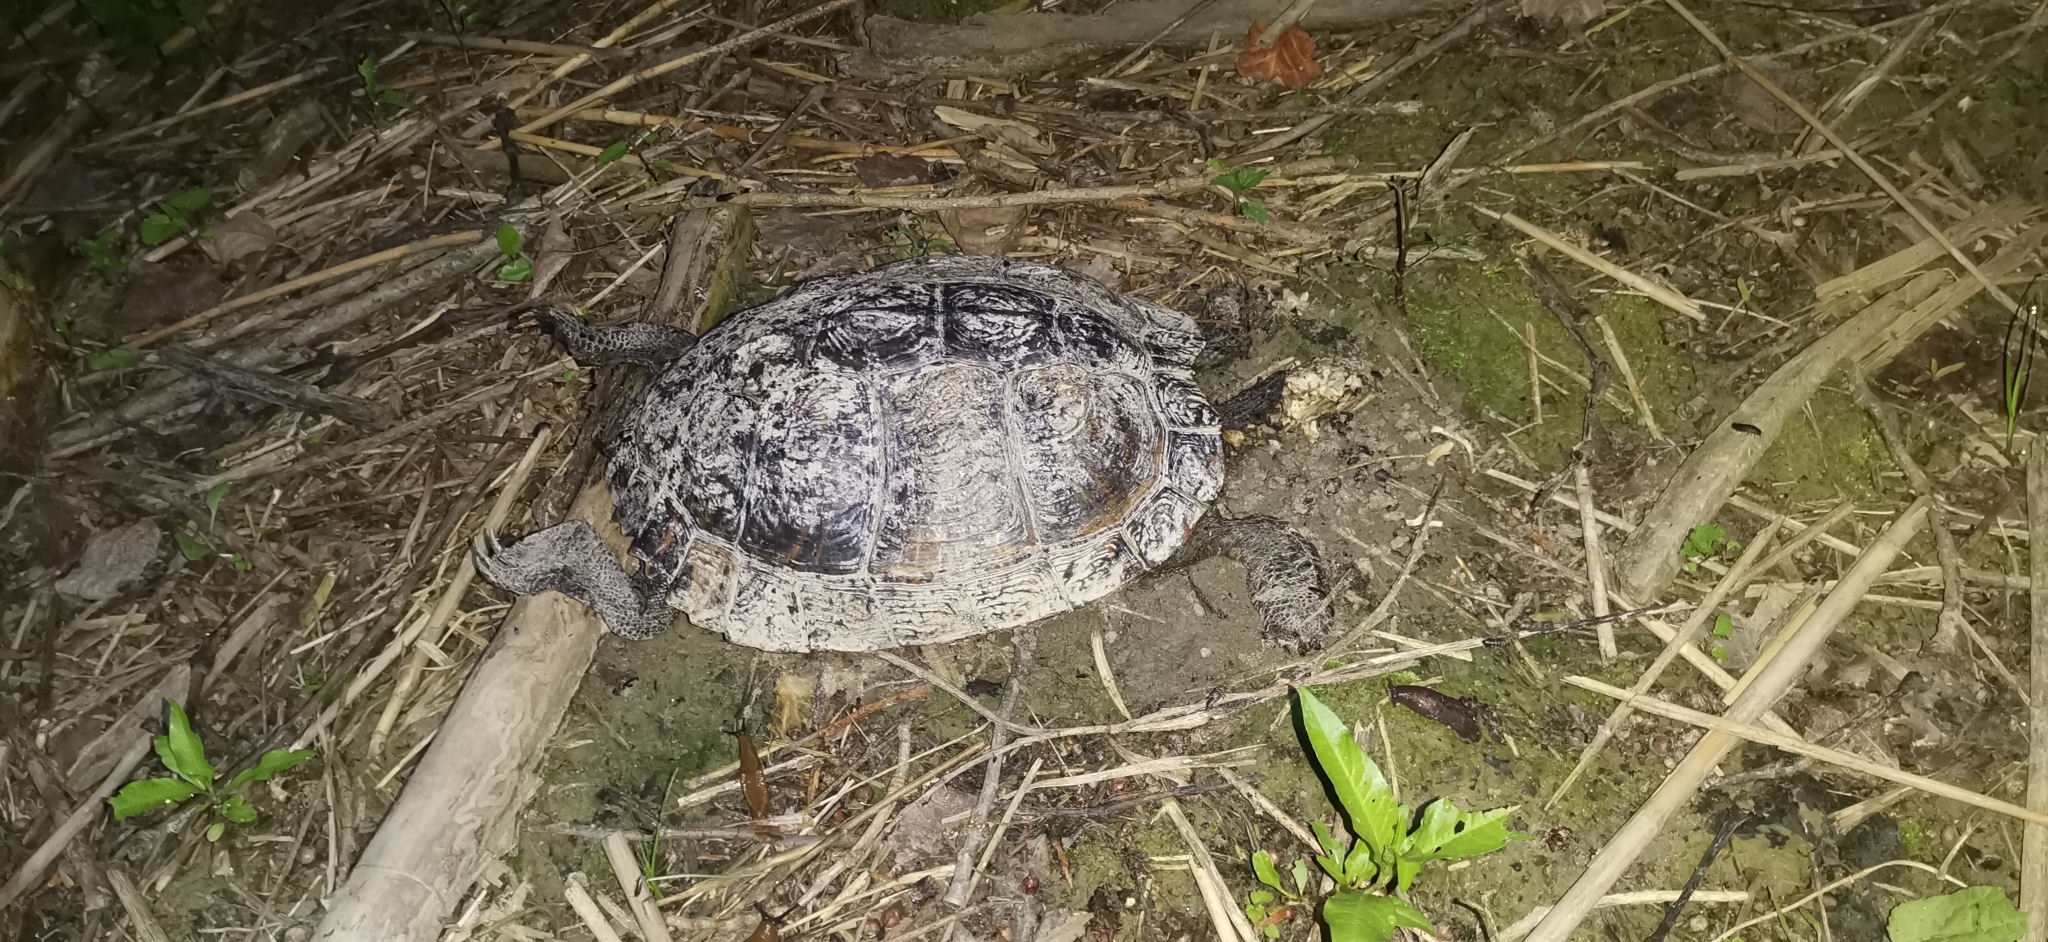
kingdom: Animalia
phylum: Chordata
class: Testudines
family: Emydidae
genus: Trachemys
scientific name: Trachemys scripta
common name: Slider
